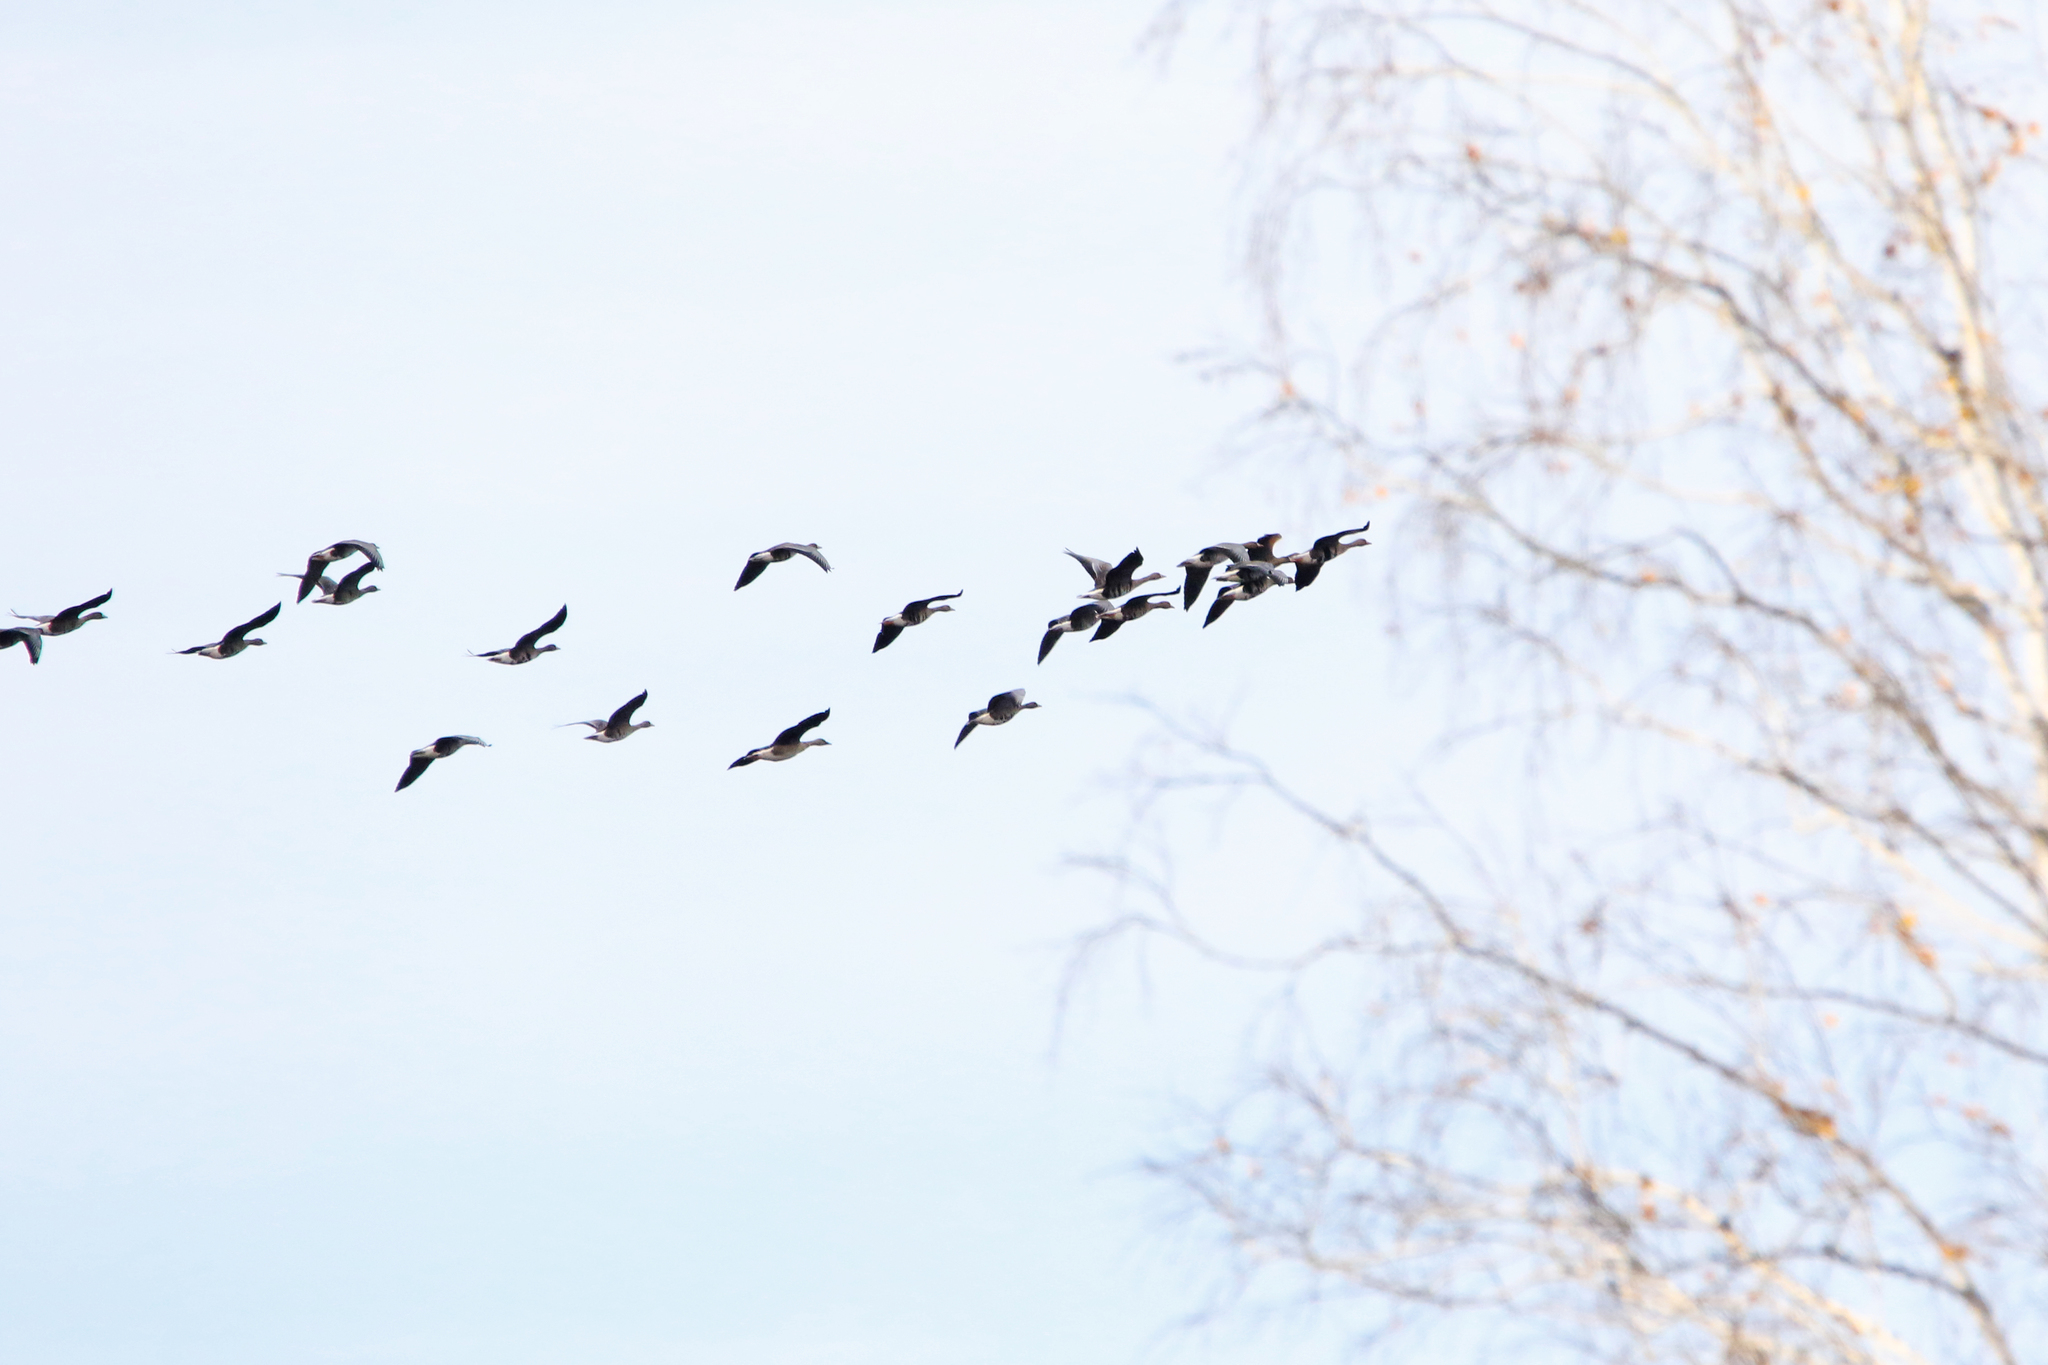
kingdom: Animalia
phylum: Chordata
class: Aves
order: Anseriformes
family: Anatidae
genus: Anser
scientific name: Anser albifrons
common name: Greater white-fronted goose
